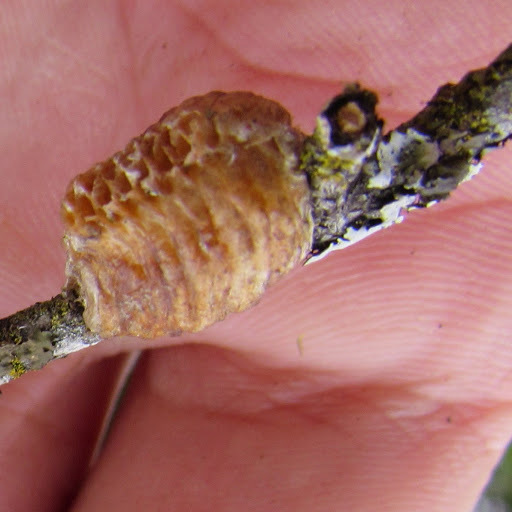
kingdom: Animalia
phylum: Arthropoda
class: Insecta
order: Mantodea
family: Mantidae
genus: Stagmomantis
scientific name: Stagmomantis limbata
